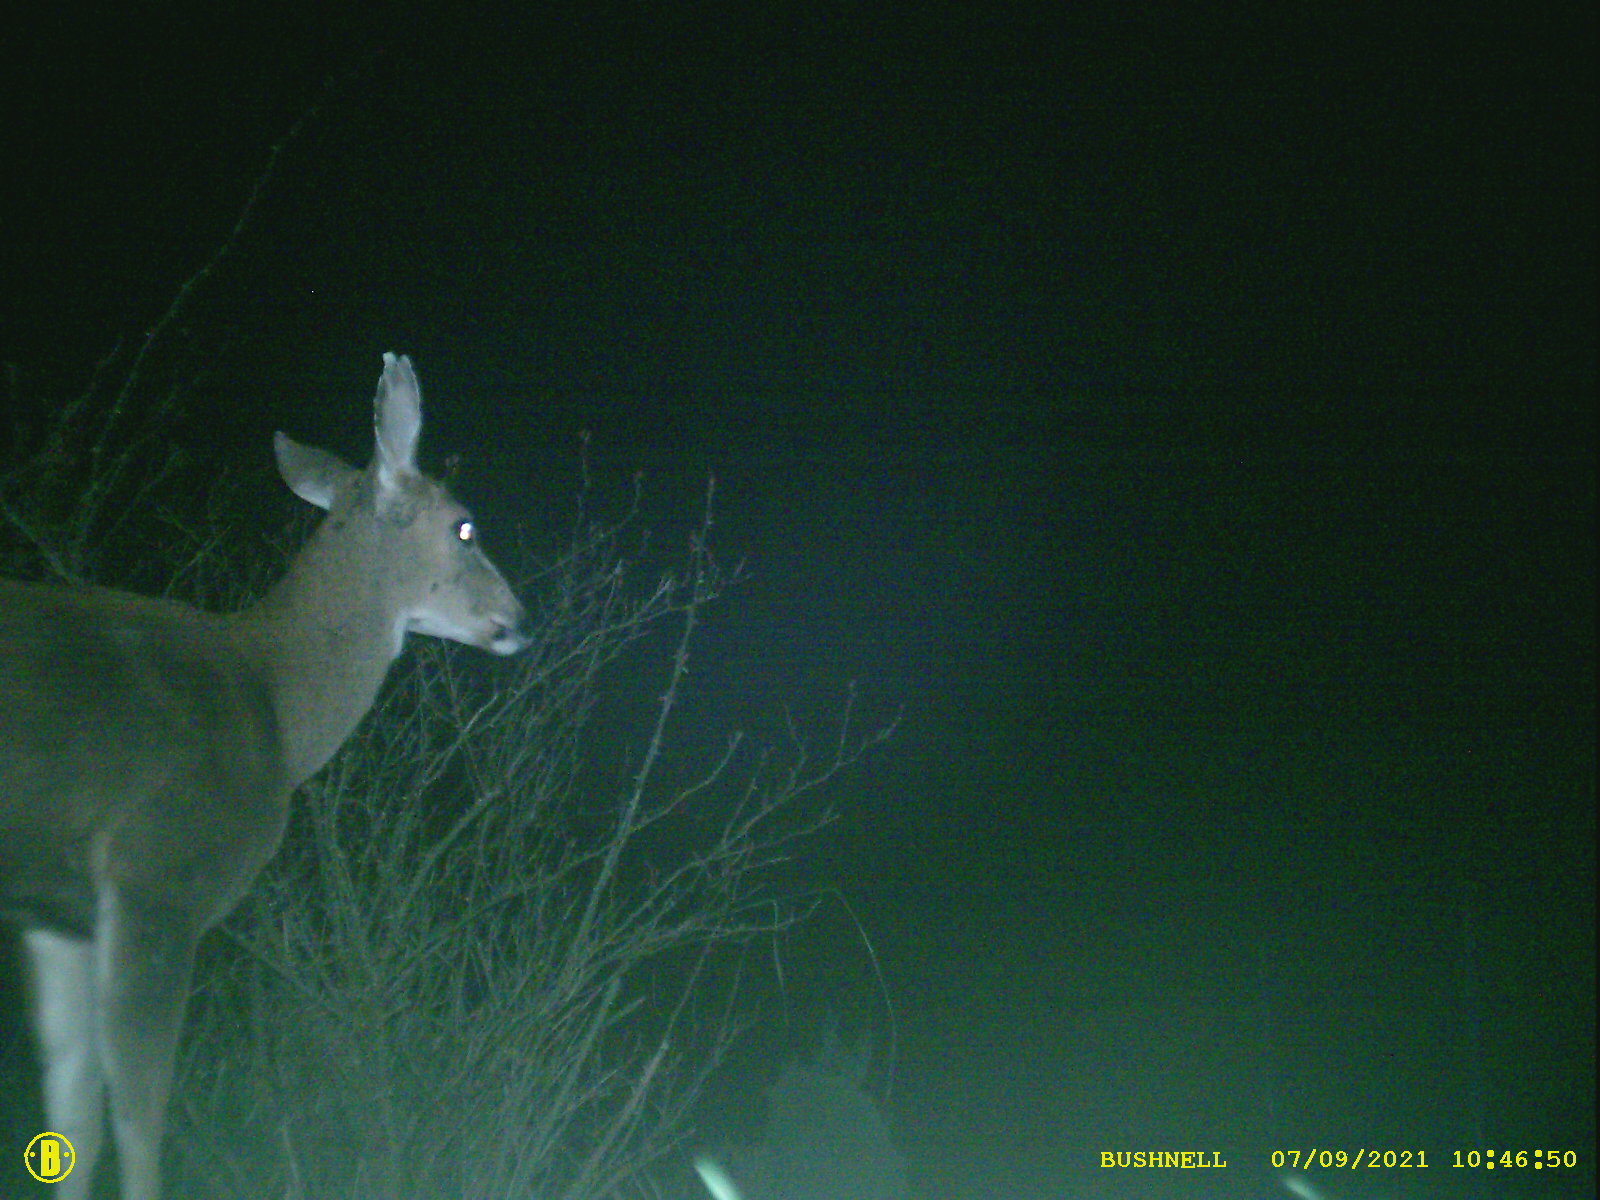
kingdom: Animalia
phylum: Chordata
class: Mammalia
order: Artiodactyla
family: Cervidae
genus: Odocoileus
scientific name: Odocoileus hemionus
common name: Mule deer
